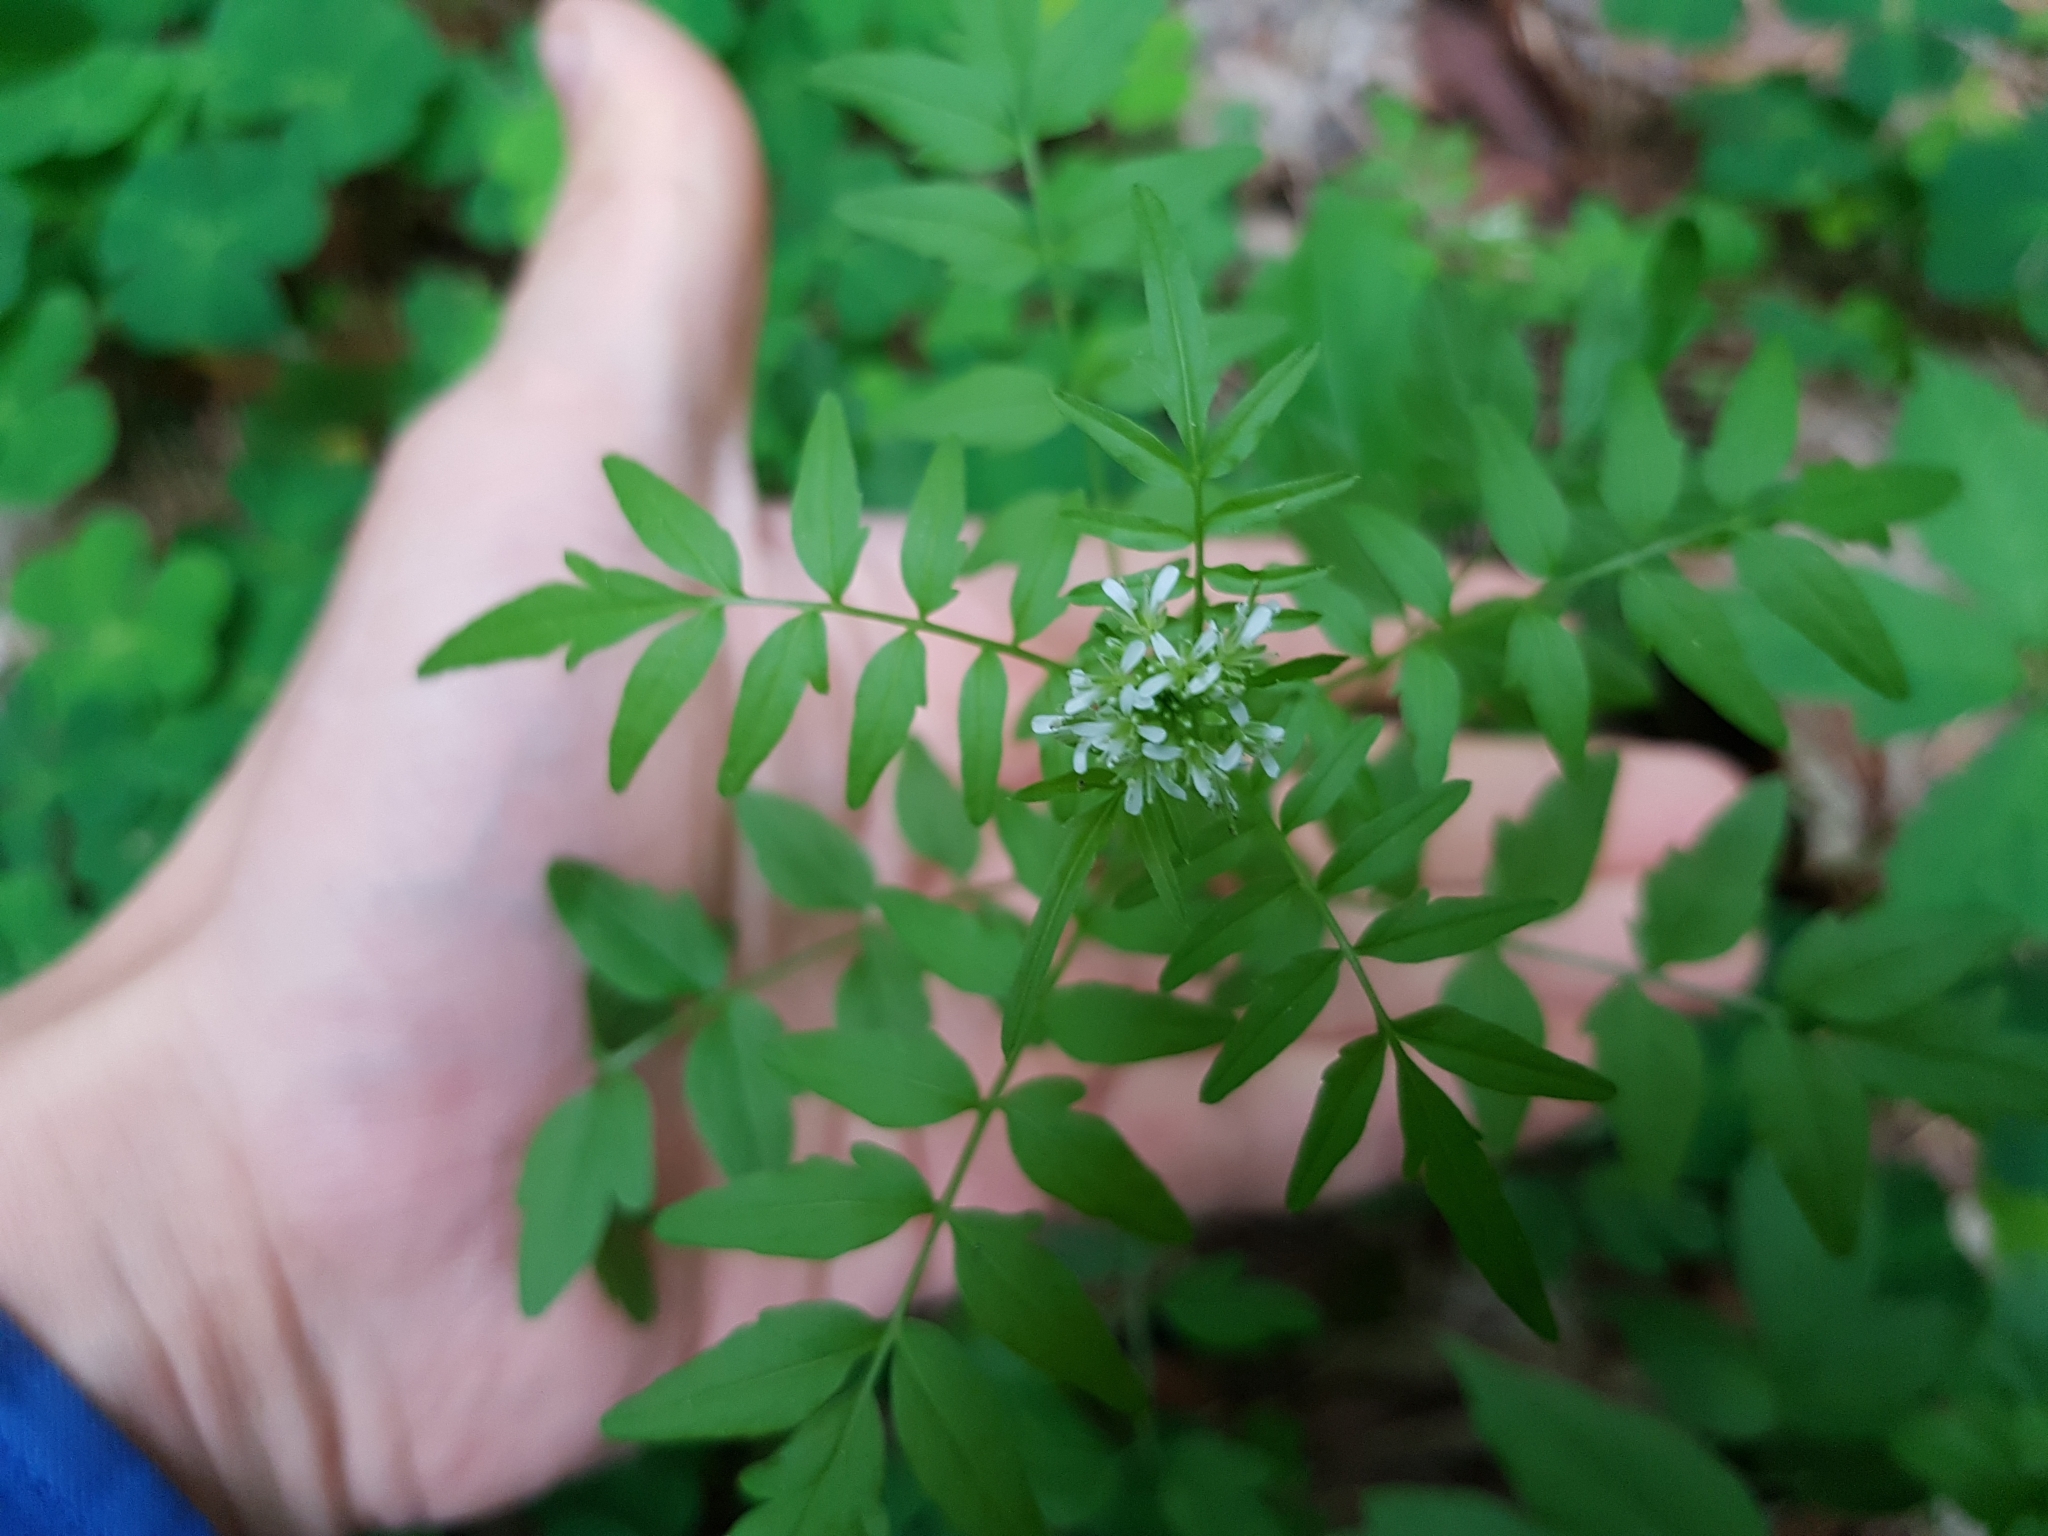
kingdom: Plantae
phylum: Tracheophyta
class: Magnoliopsida
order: Brassicales
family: Brassicaceae
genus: Cardamine
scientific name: Cardamine impatiens
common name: Narrow-leaved bitter-cress
